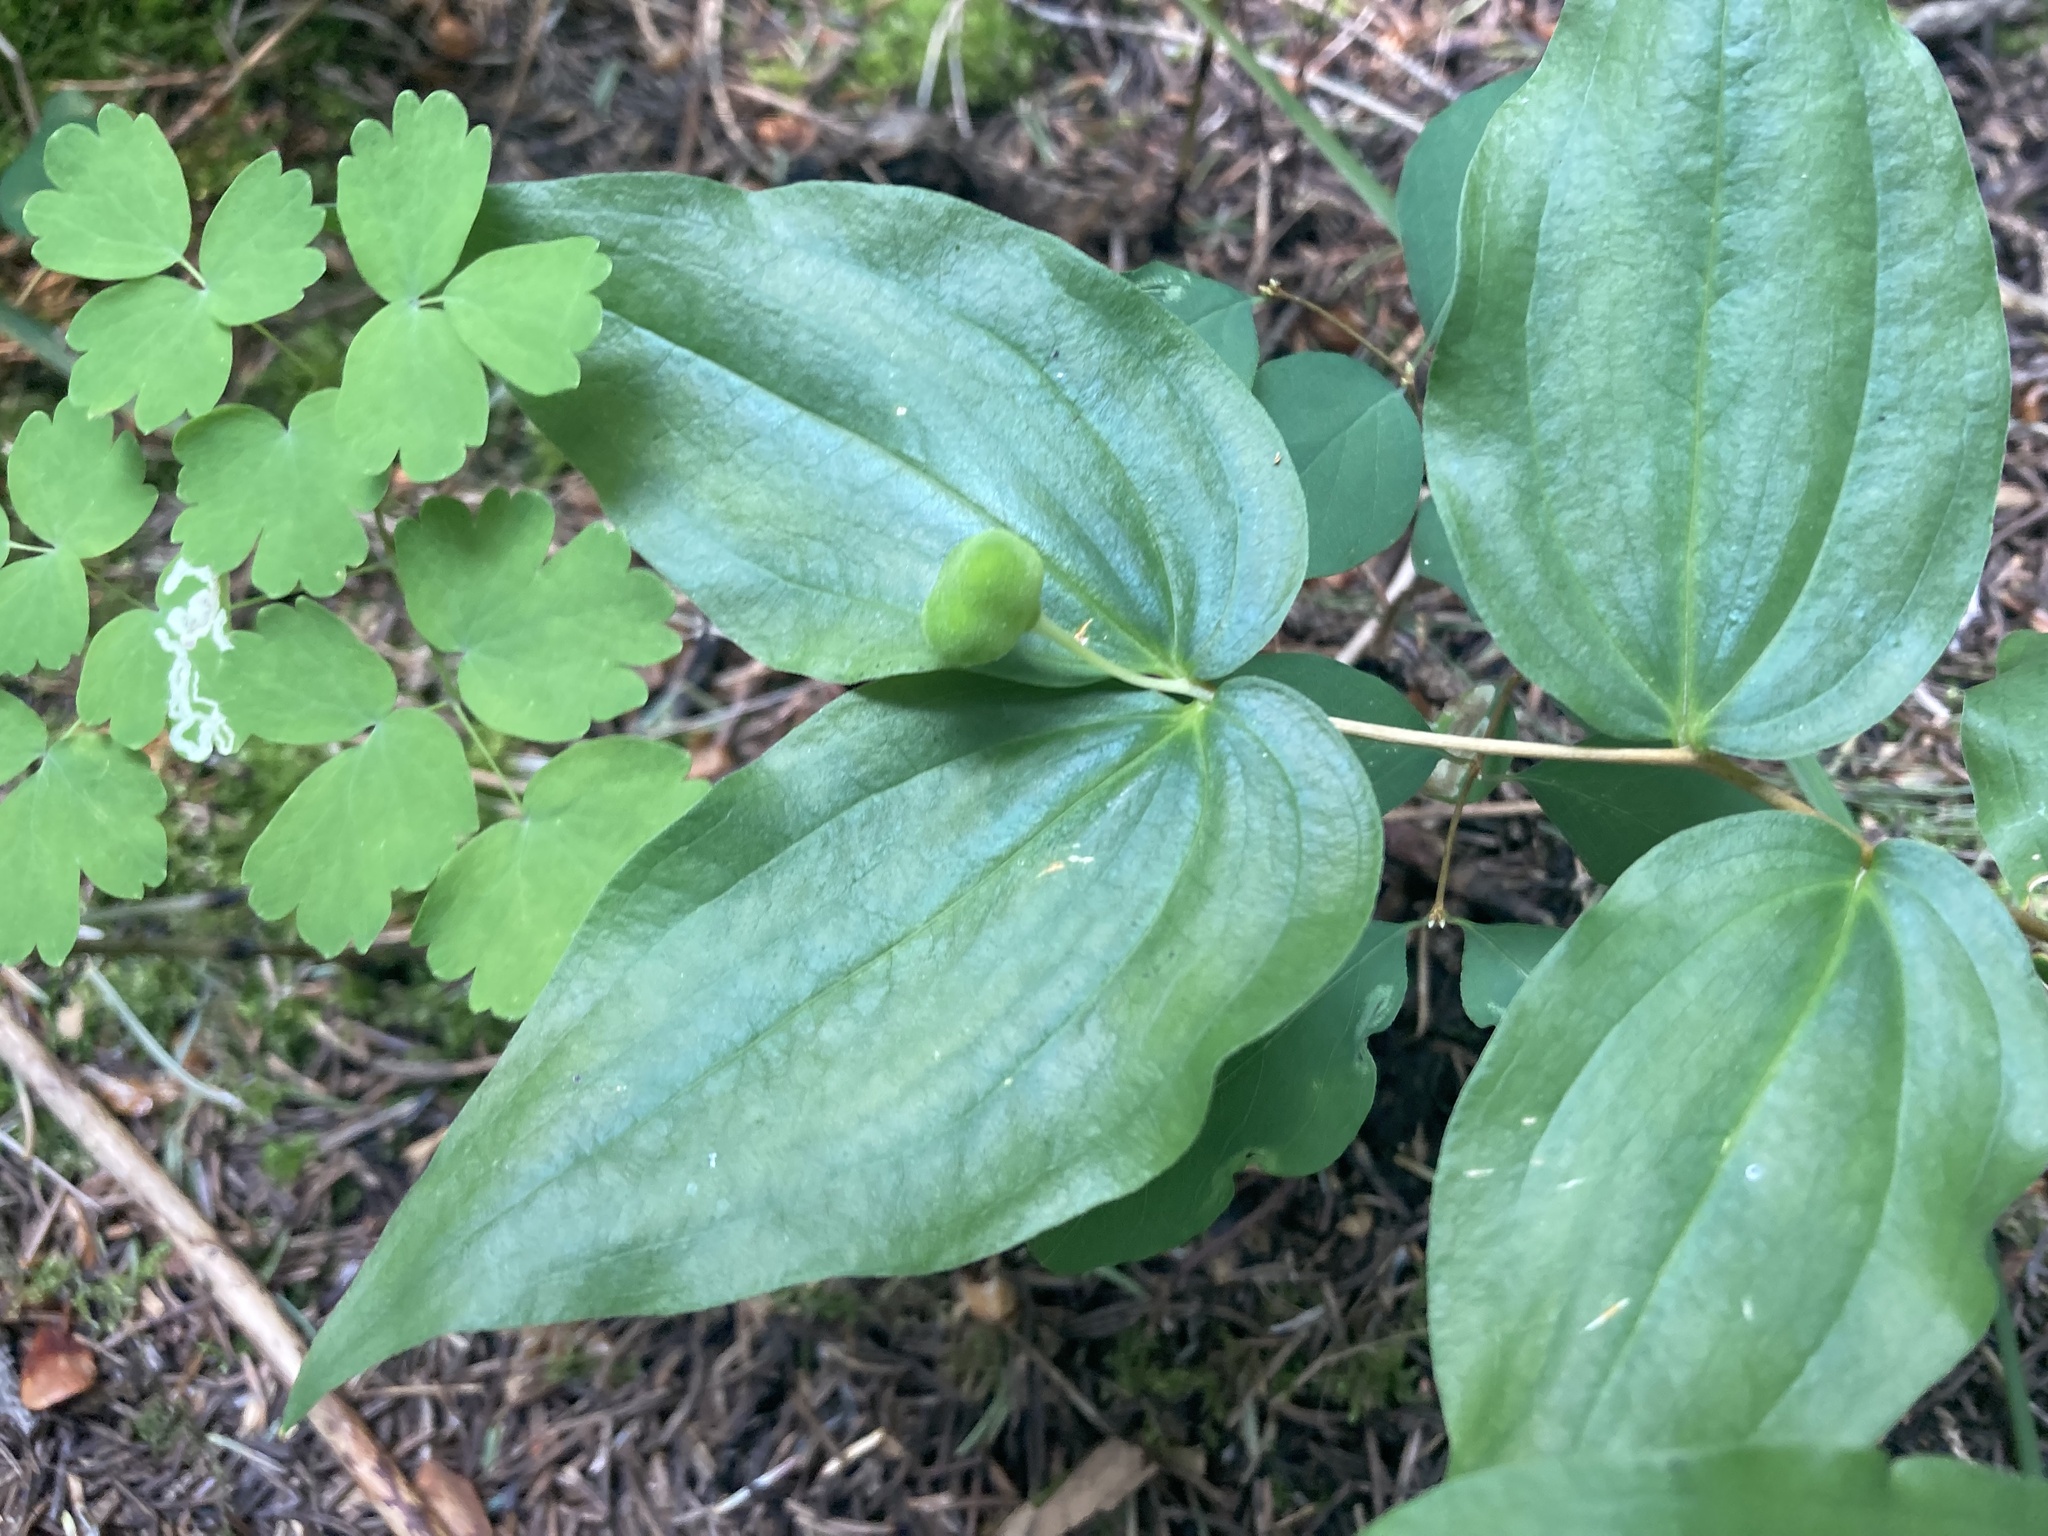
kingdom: Plantae
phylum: Tracheophyta
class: Liliopsida
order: Liliales
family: Liliaceae
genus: Prosartes
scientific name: Prosartes trachycarpa
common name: Rough-fruit fairy-bells
